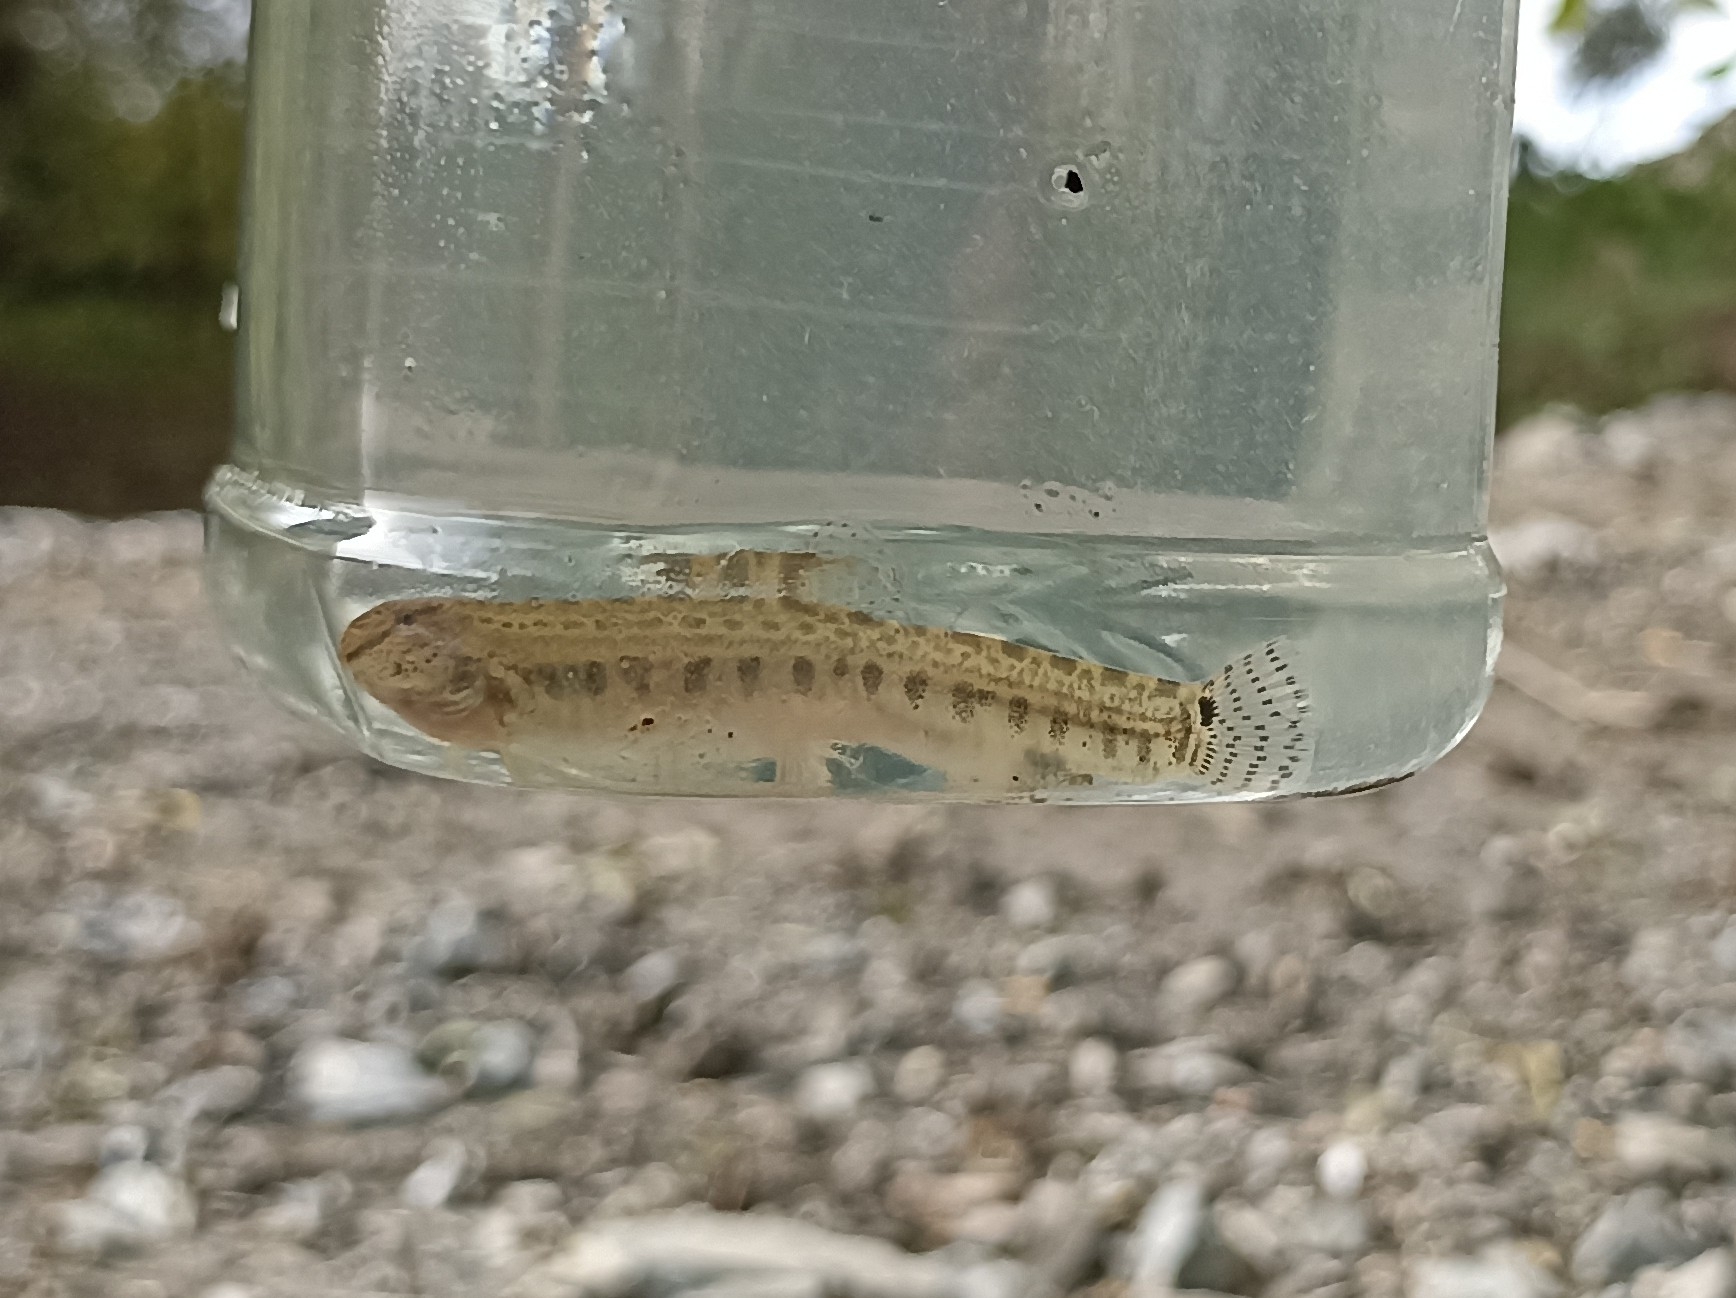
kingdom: Animalia
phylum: Chordata
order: Cypriniformes
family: Nemacheilidae
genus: Barbatula
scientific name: Barbatula barbatula
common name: Stone loach
